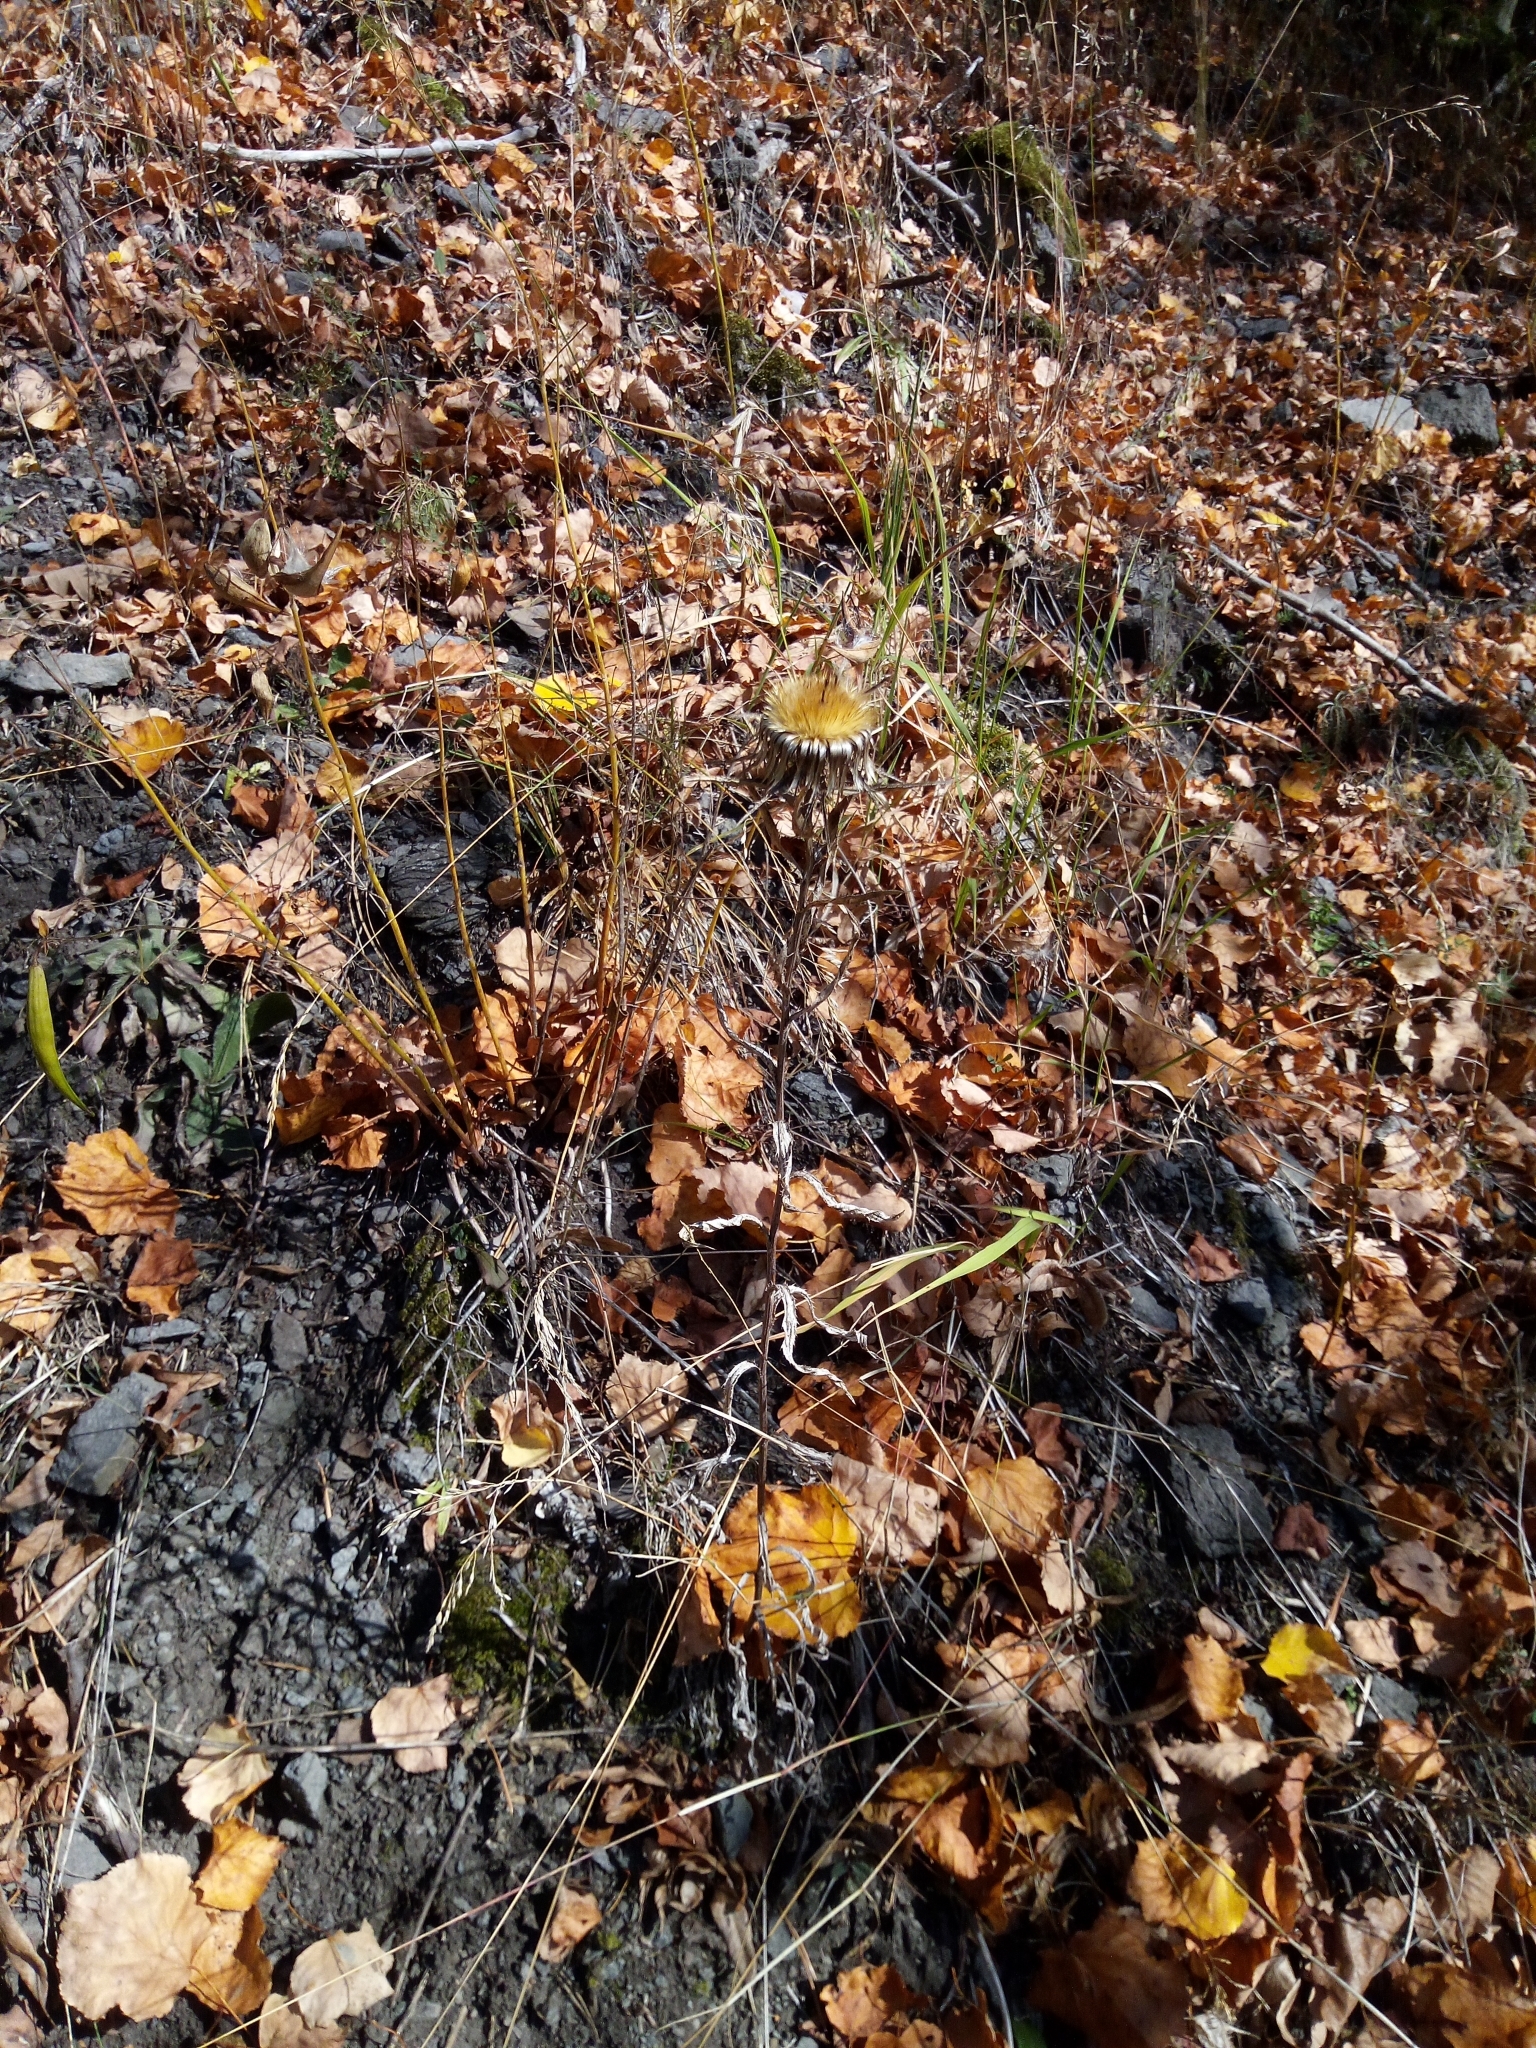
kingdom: Plantae
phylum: Tracheophyta
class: Magnoliopsida
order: Asterales
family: Asteraceae
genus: Carlina
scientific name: Carlina biebersteinii
